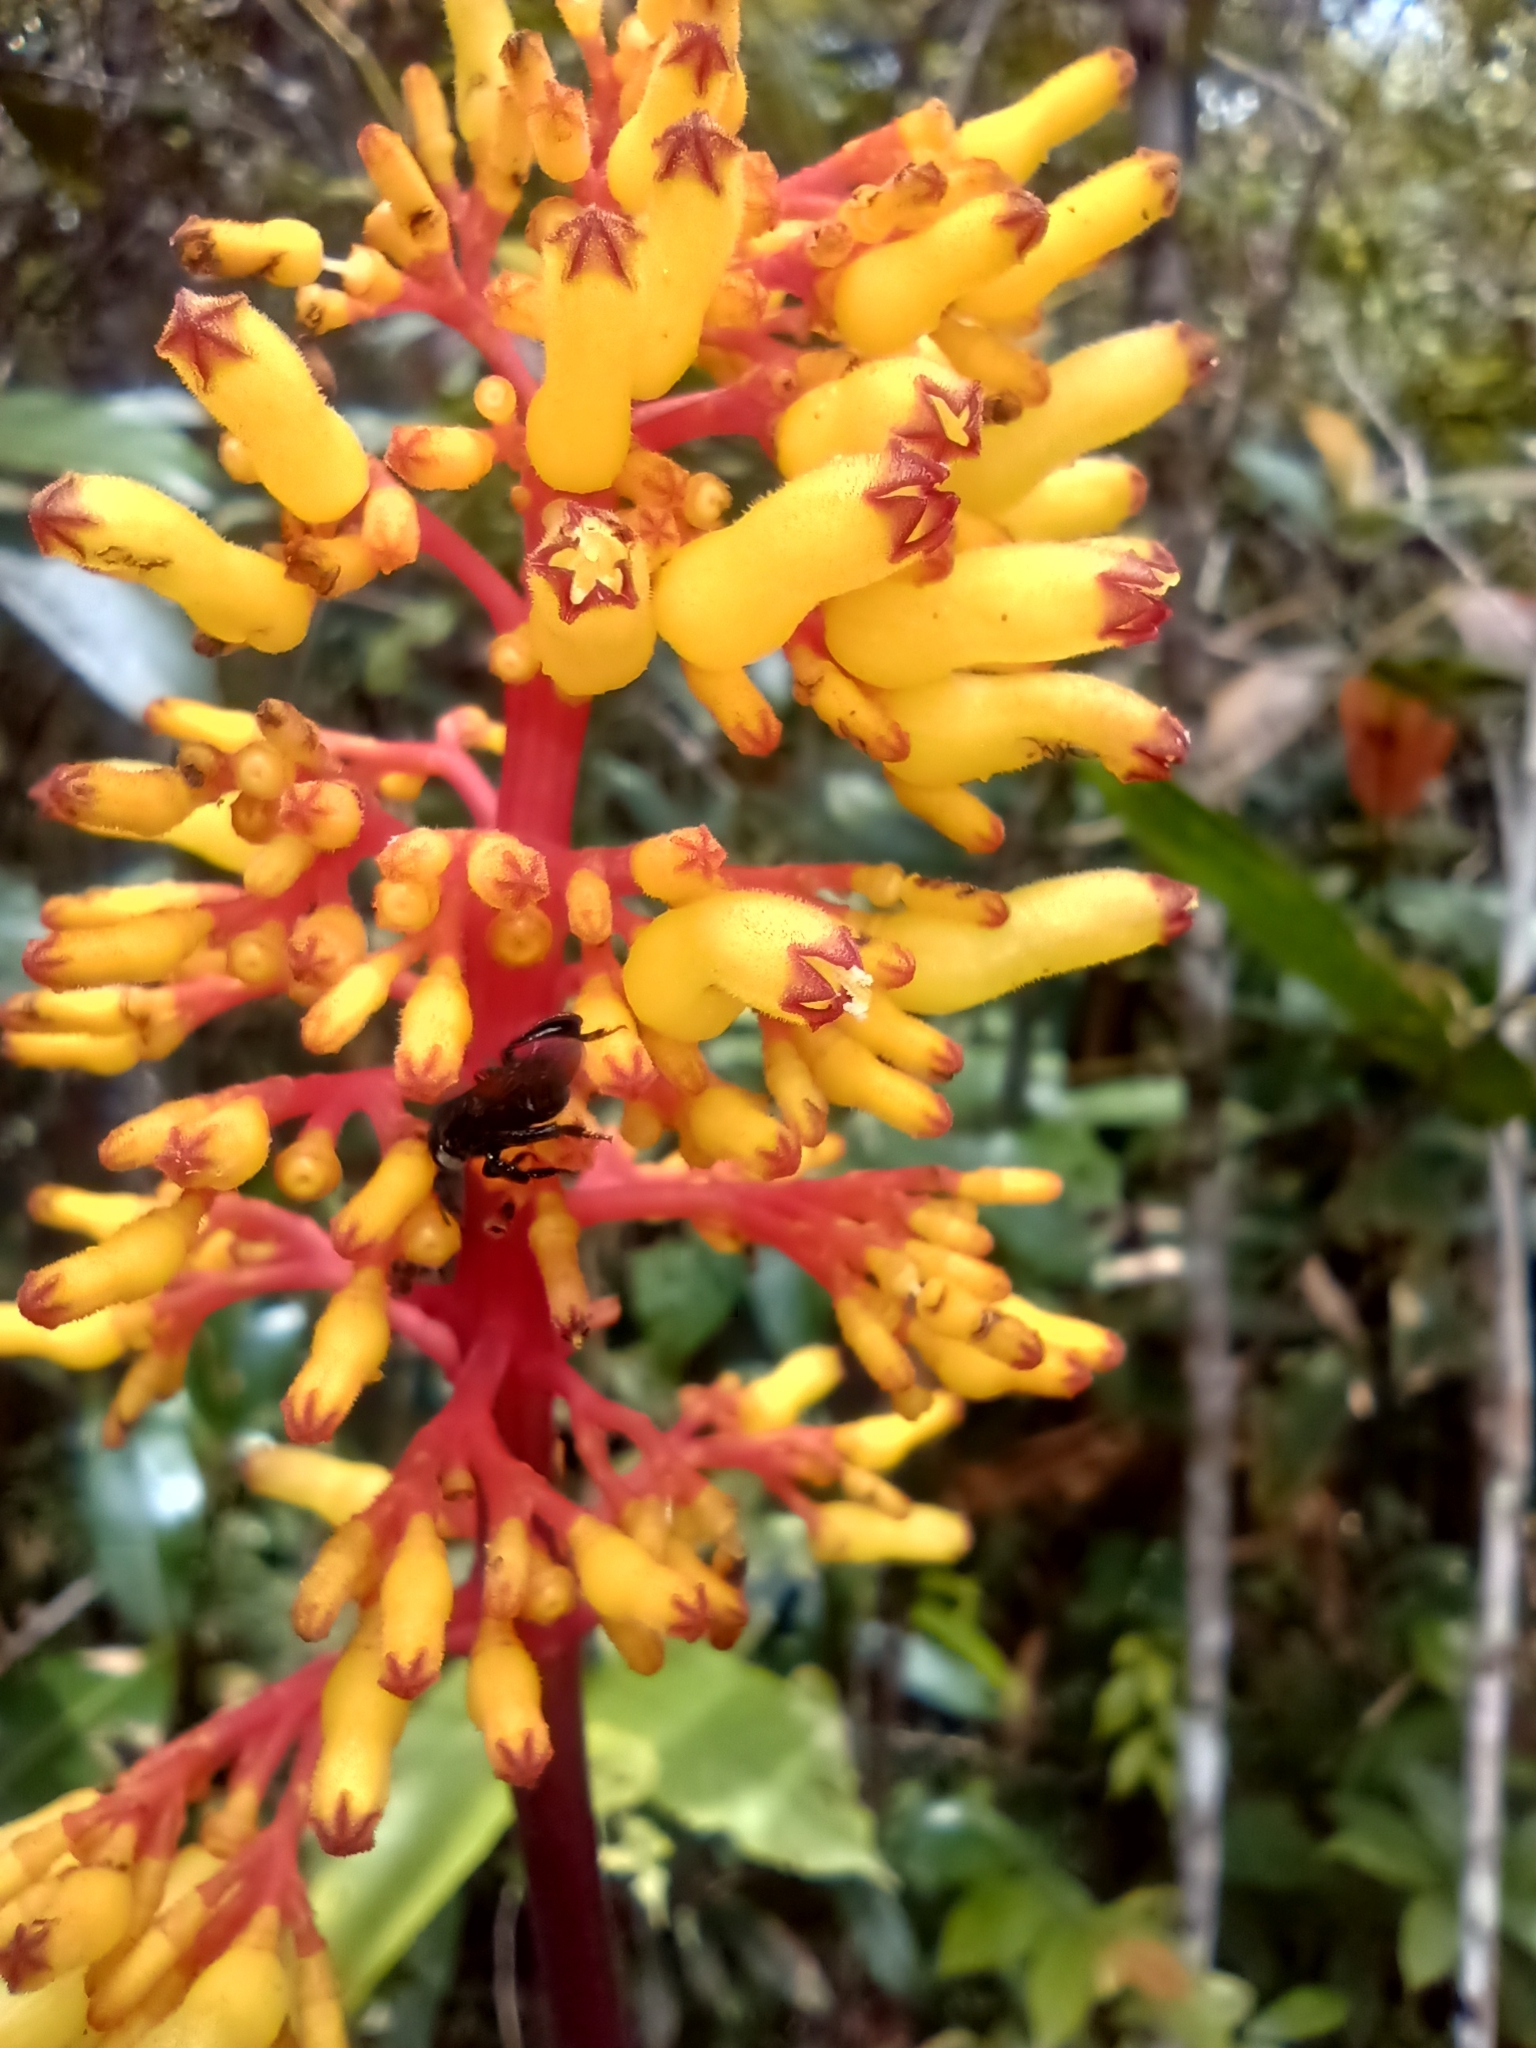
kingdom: Plantae
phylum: Tracheophyta
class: Magnoliopsida
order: Gentianales
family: Rubiaceae
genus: Palicourea
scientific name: Palicourea triphylla
